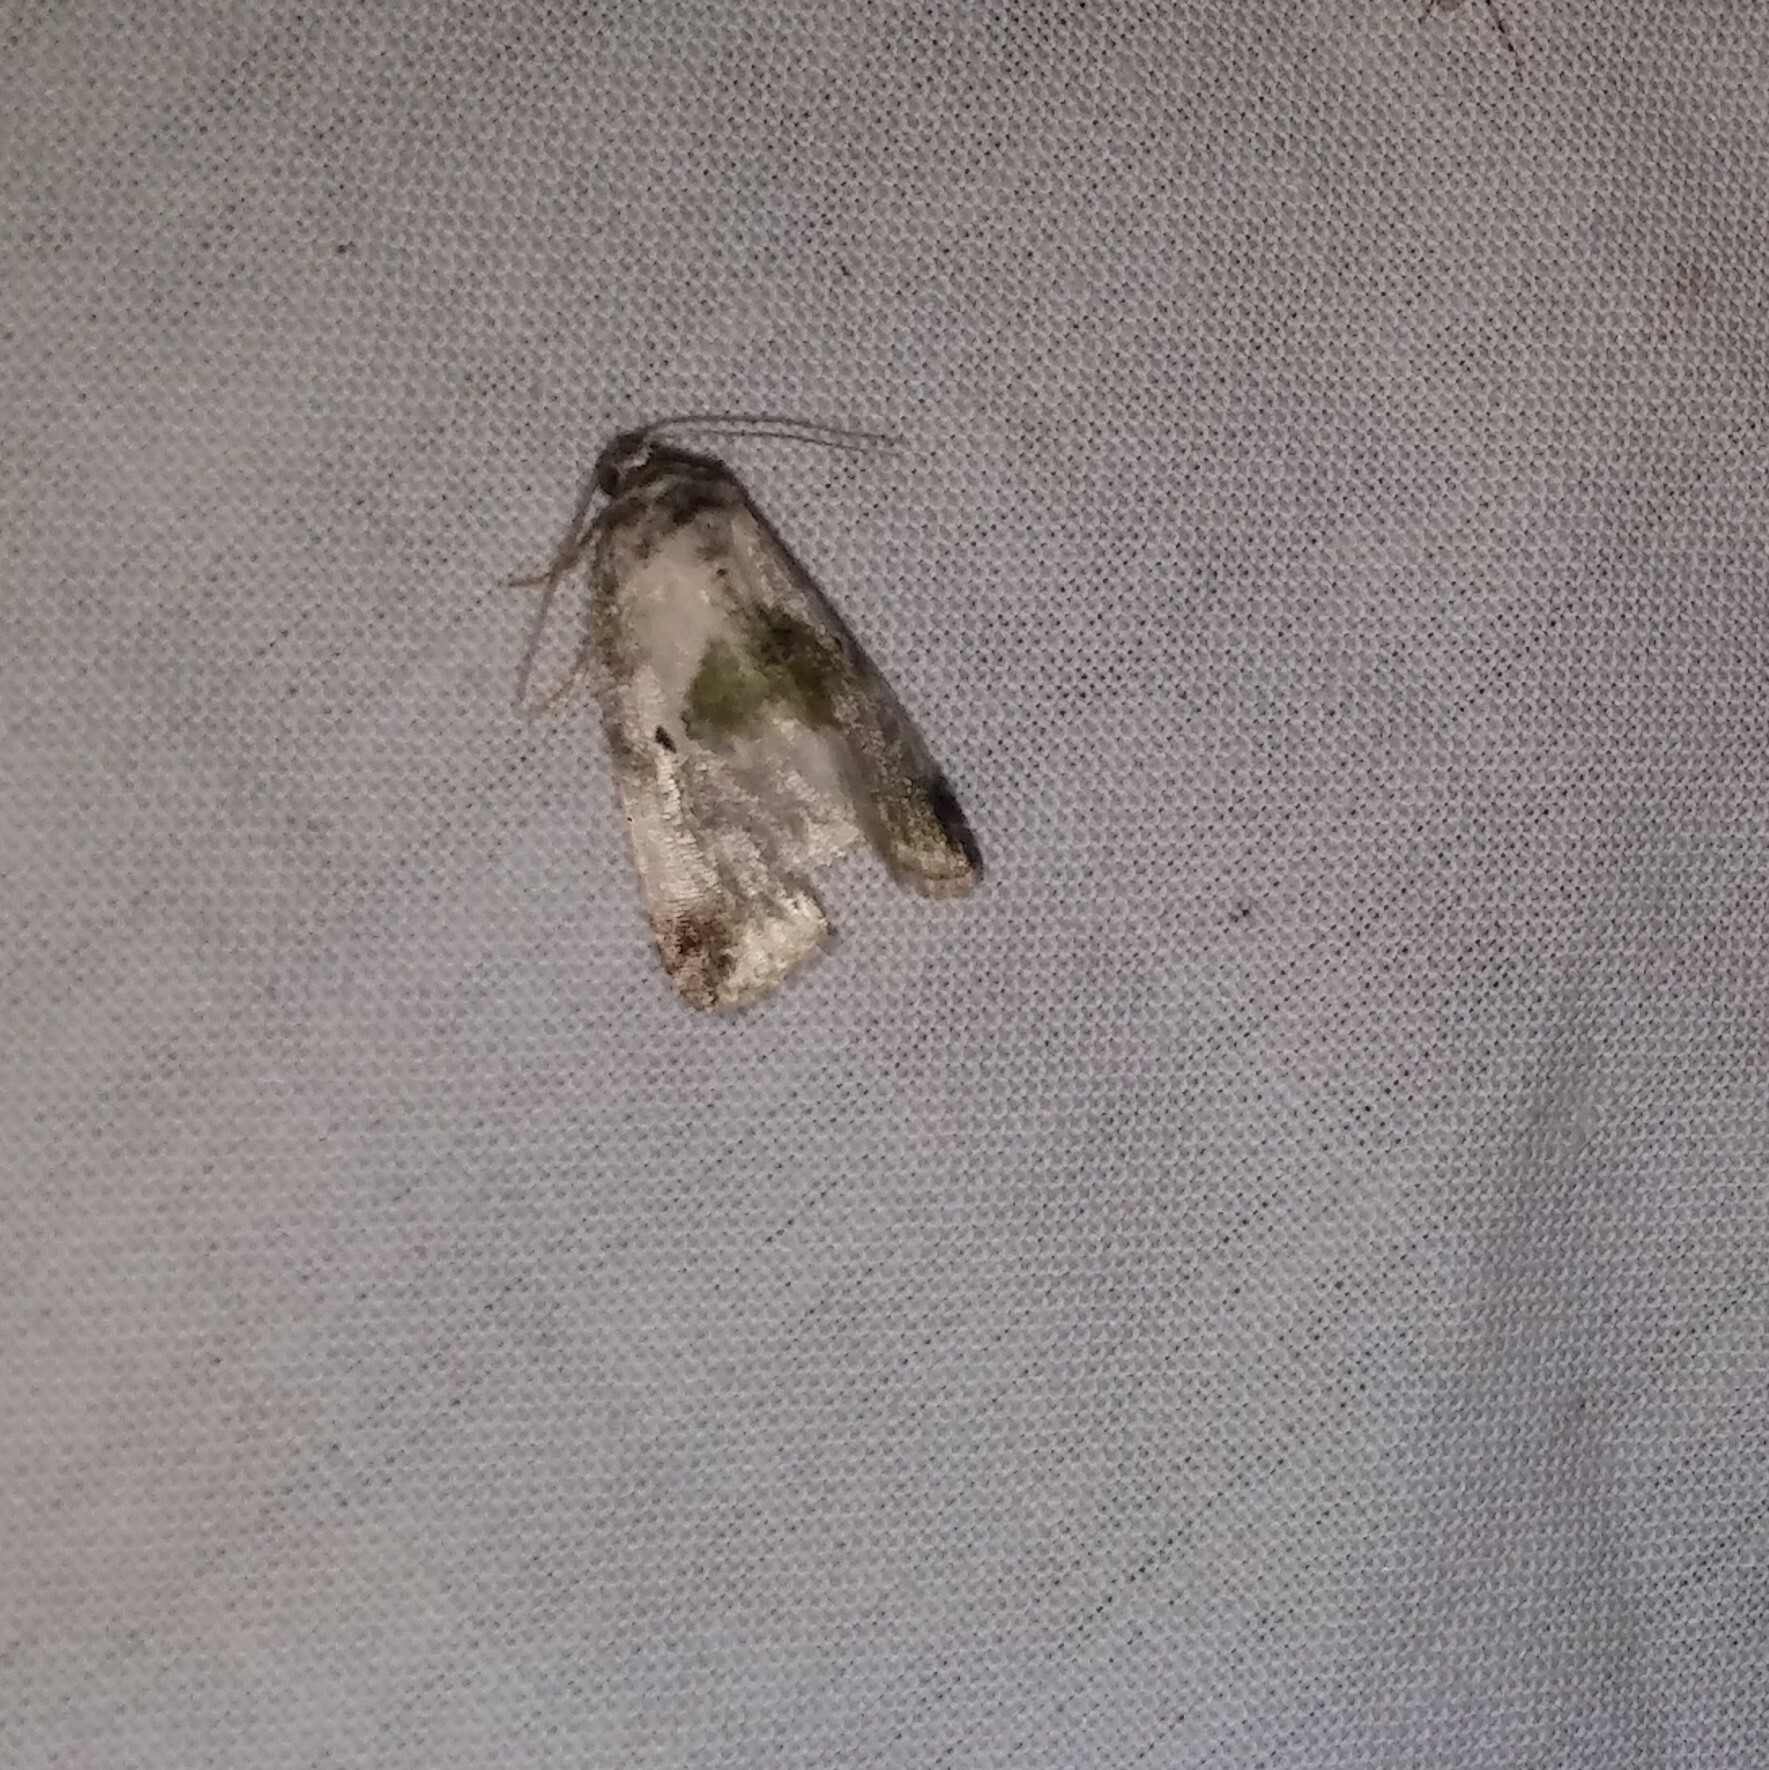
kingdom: Animalia
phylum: Arthropoda
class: Insecta
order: Lepidoptera
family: Noctuidae
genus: Maliattha
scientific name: Maliattha synochitis
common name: Black-dotted glyph
